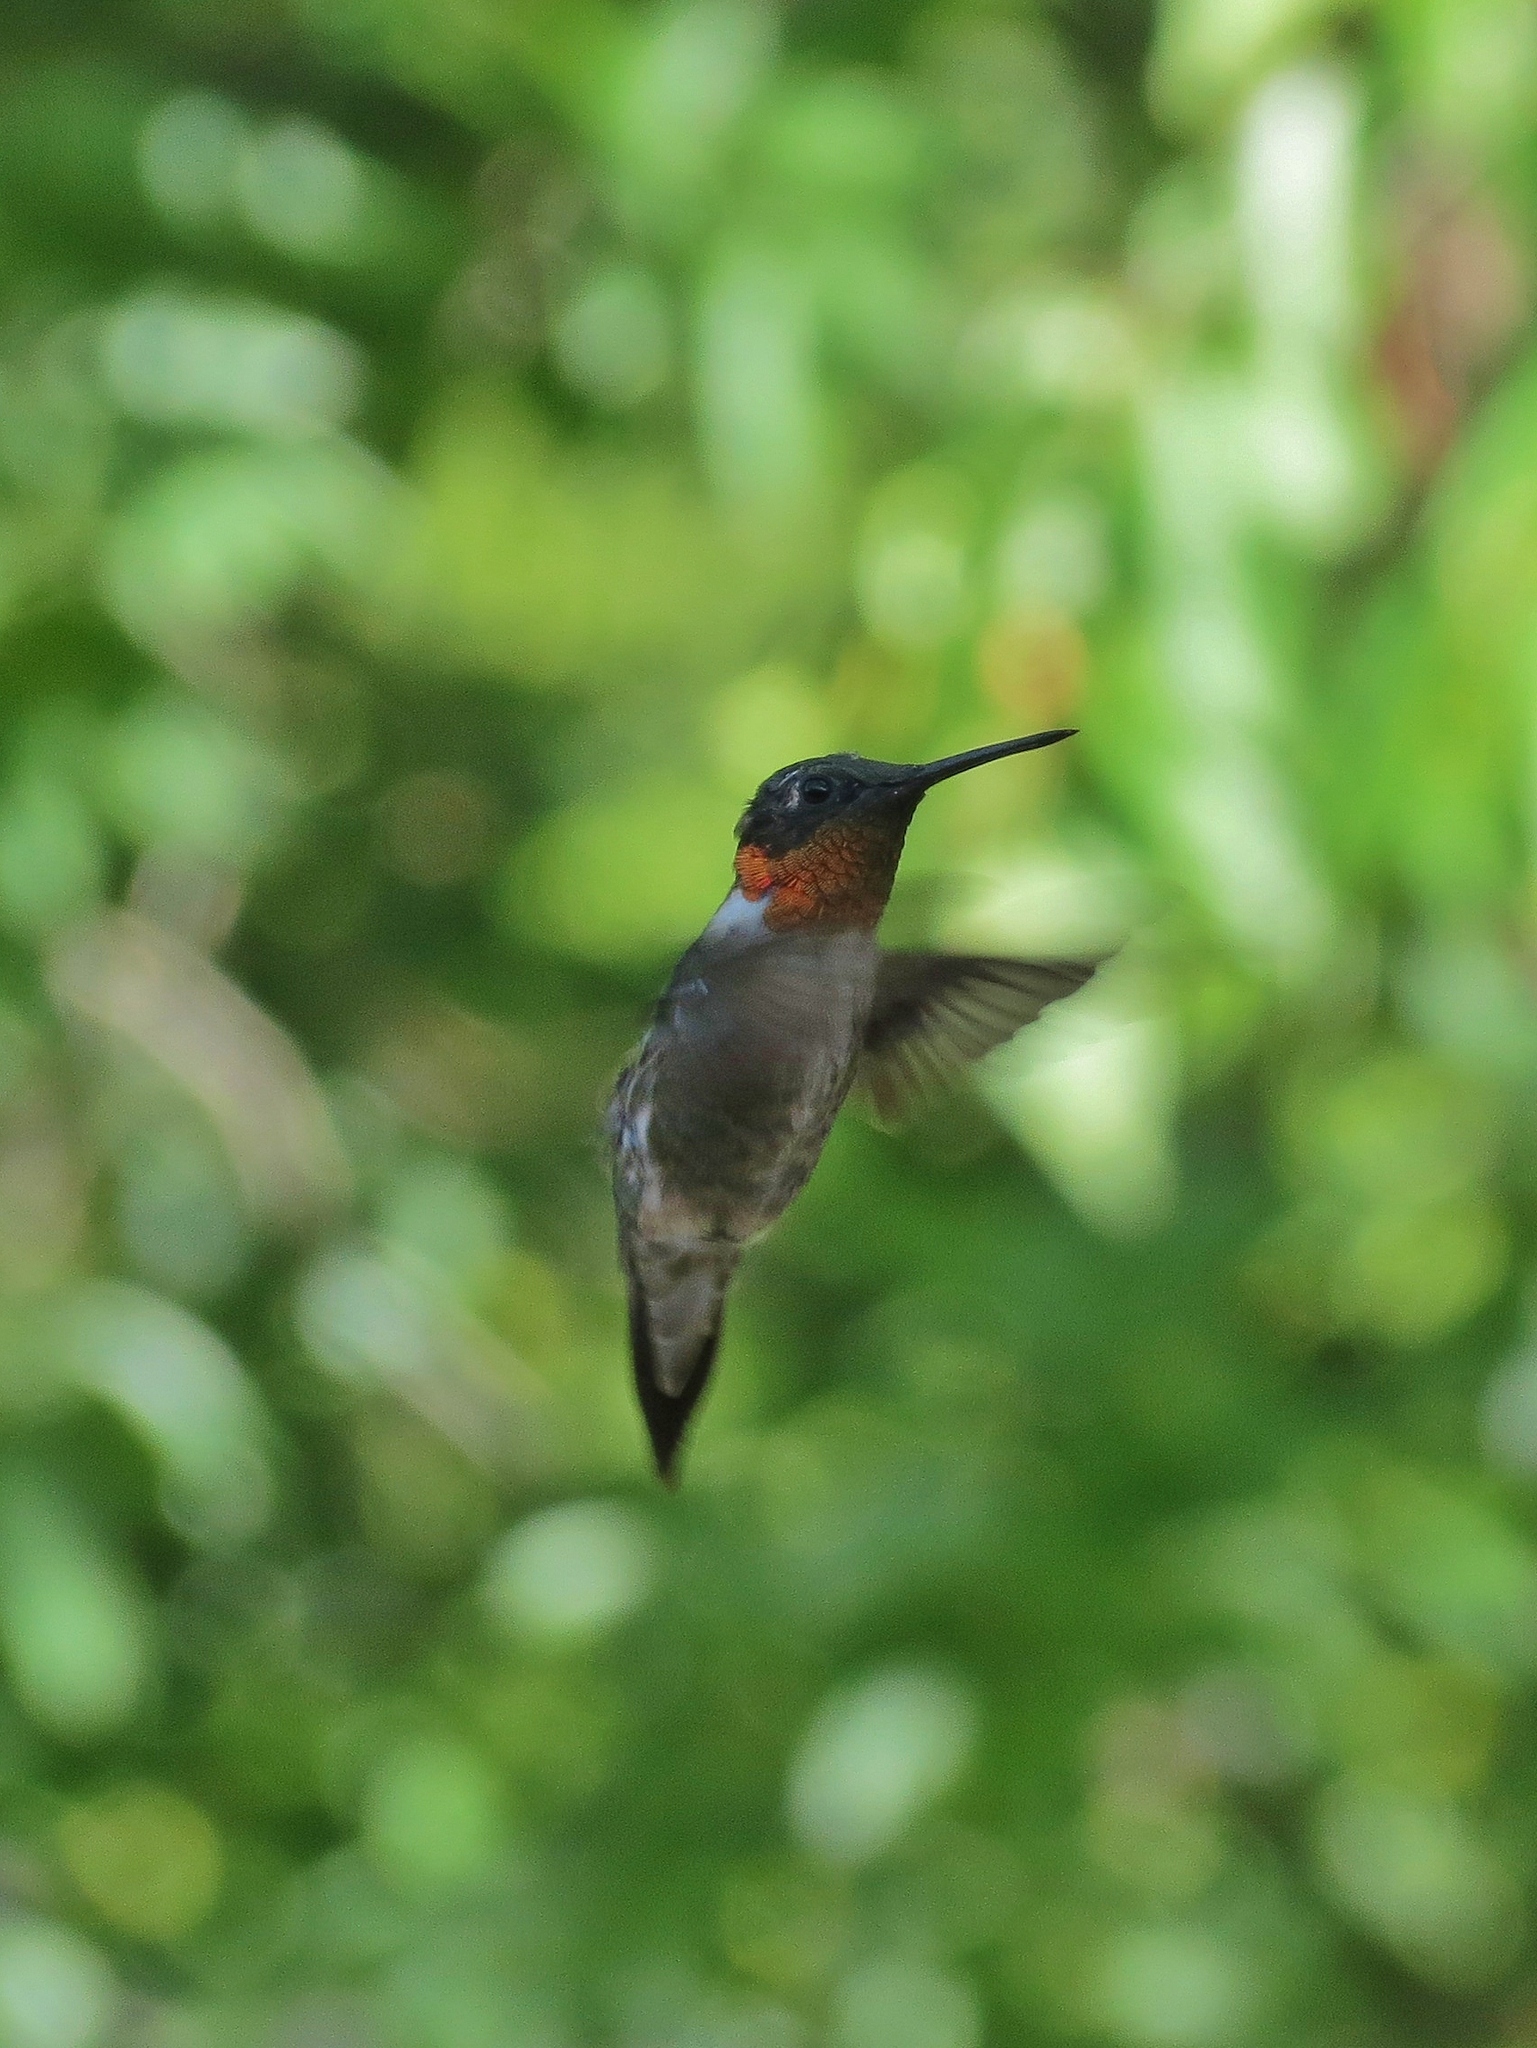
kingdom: Animalia
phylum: Chordata
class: Aves
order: Apodiformes
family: Trochilidae
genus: Archilochus
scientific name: Archilochus colubris
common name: Ruby-throated hummingbird
